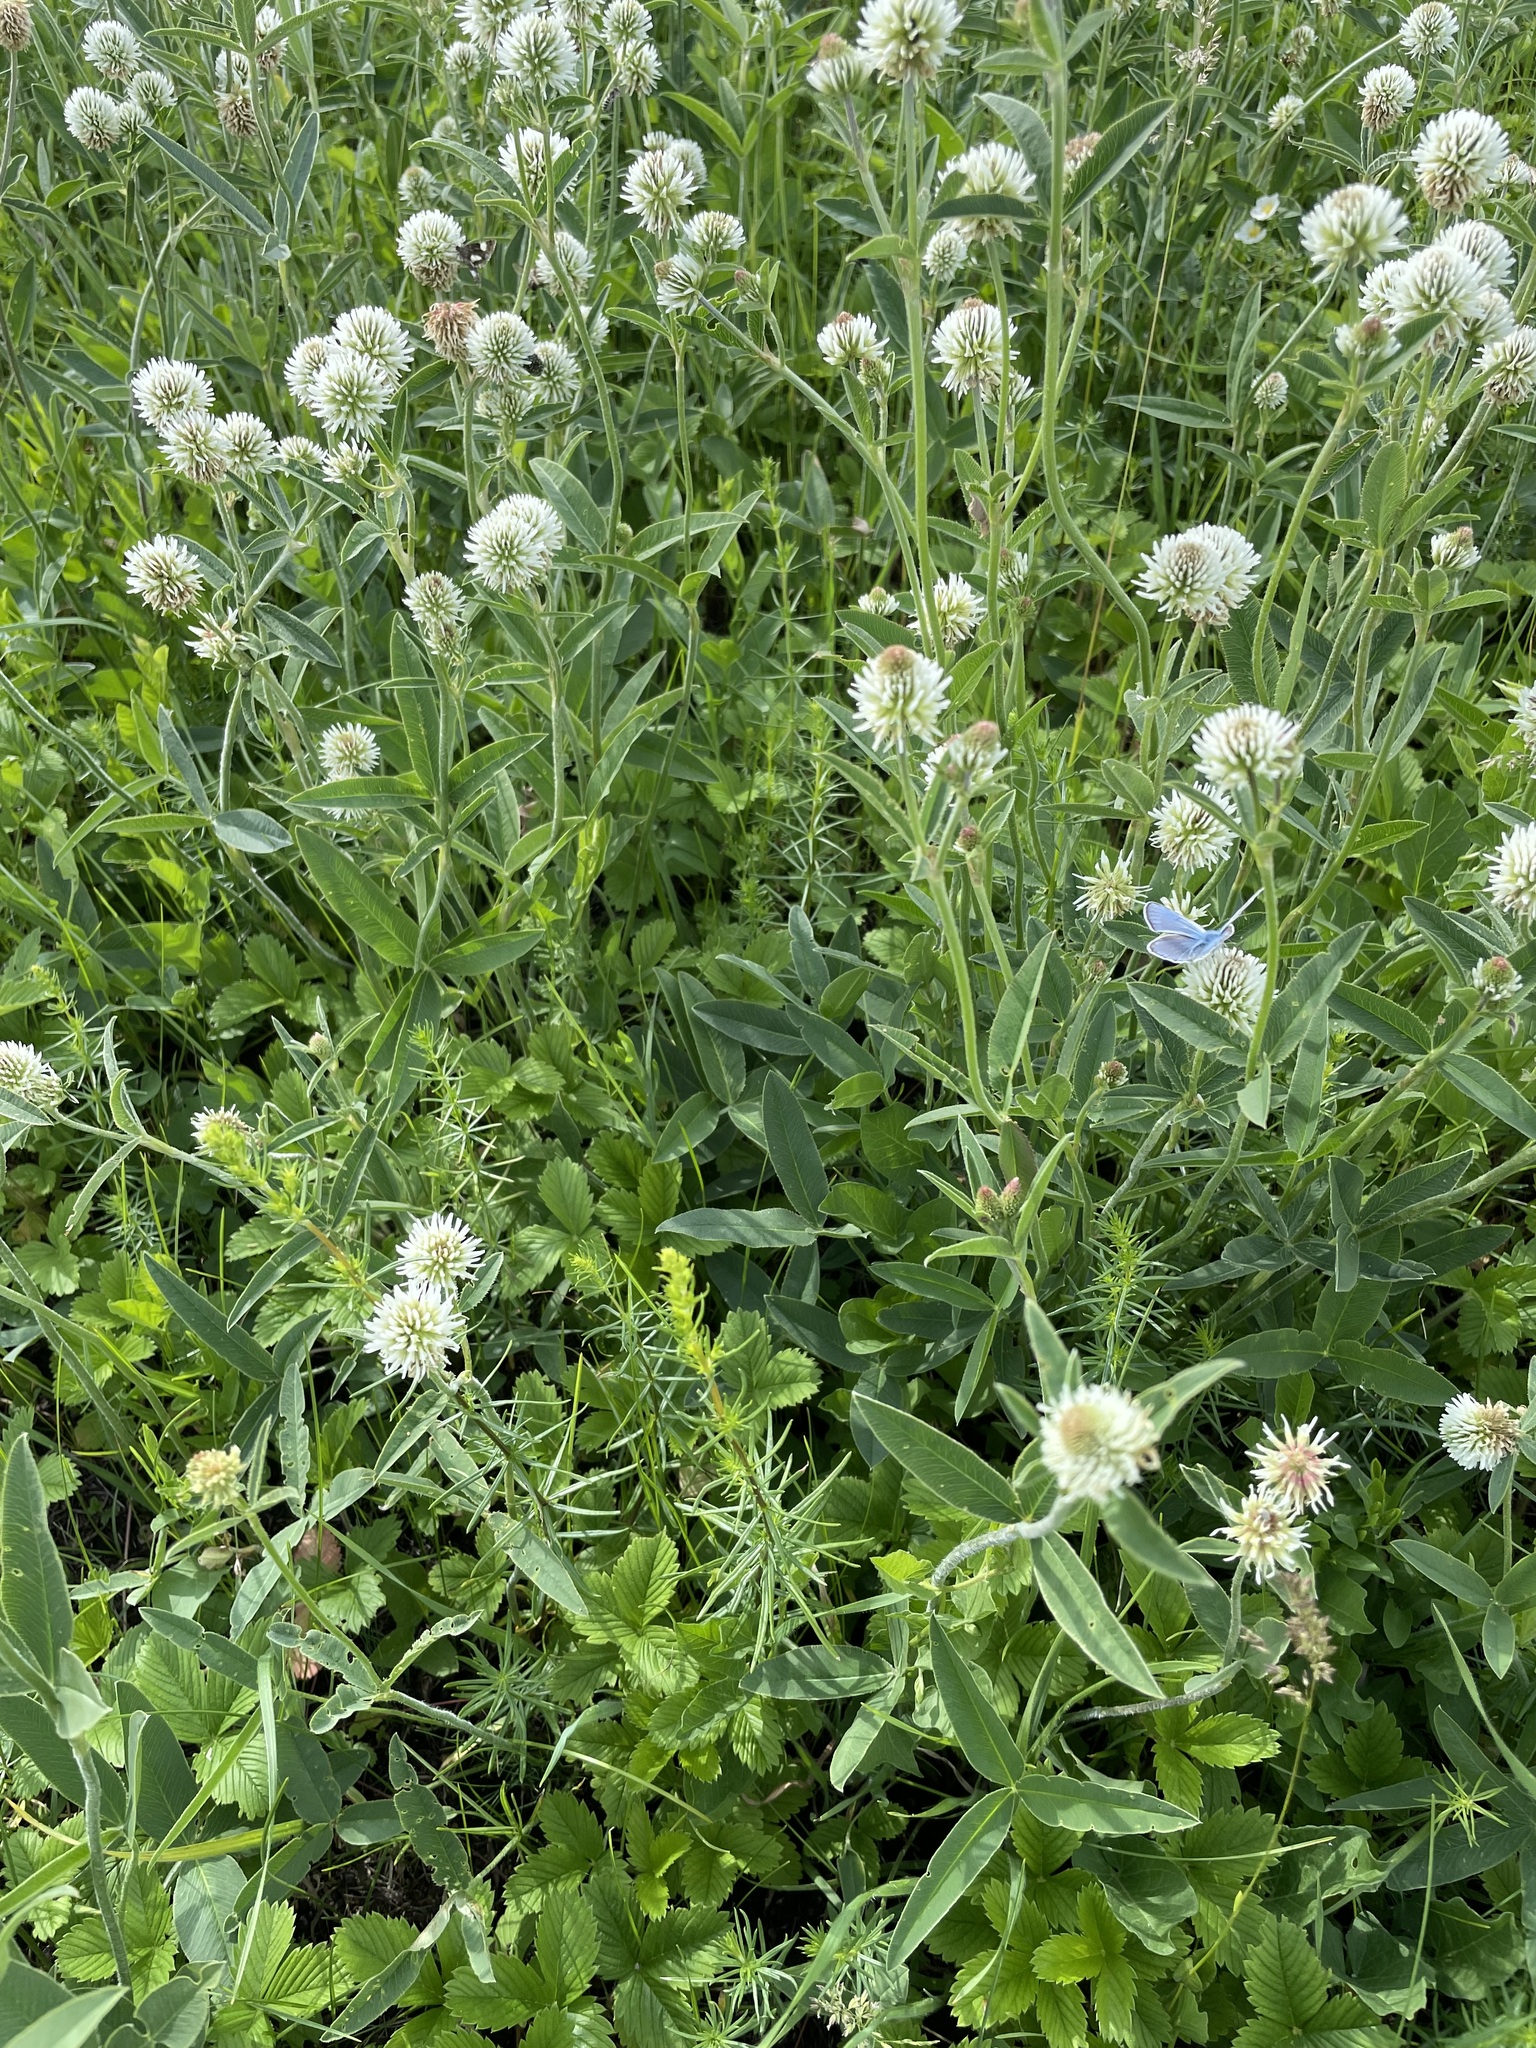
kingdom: Plantae
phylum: Tracheophyta
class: Magnoliopsida
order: Fabales
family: Fabaceae
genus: Trifolium
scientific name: Trifolium montanum
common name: Mountain clover
